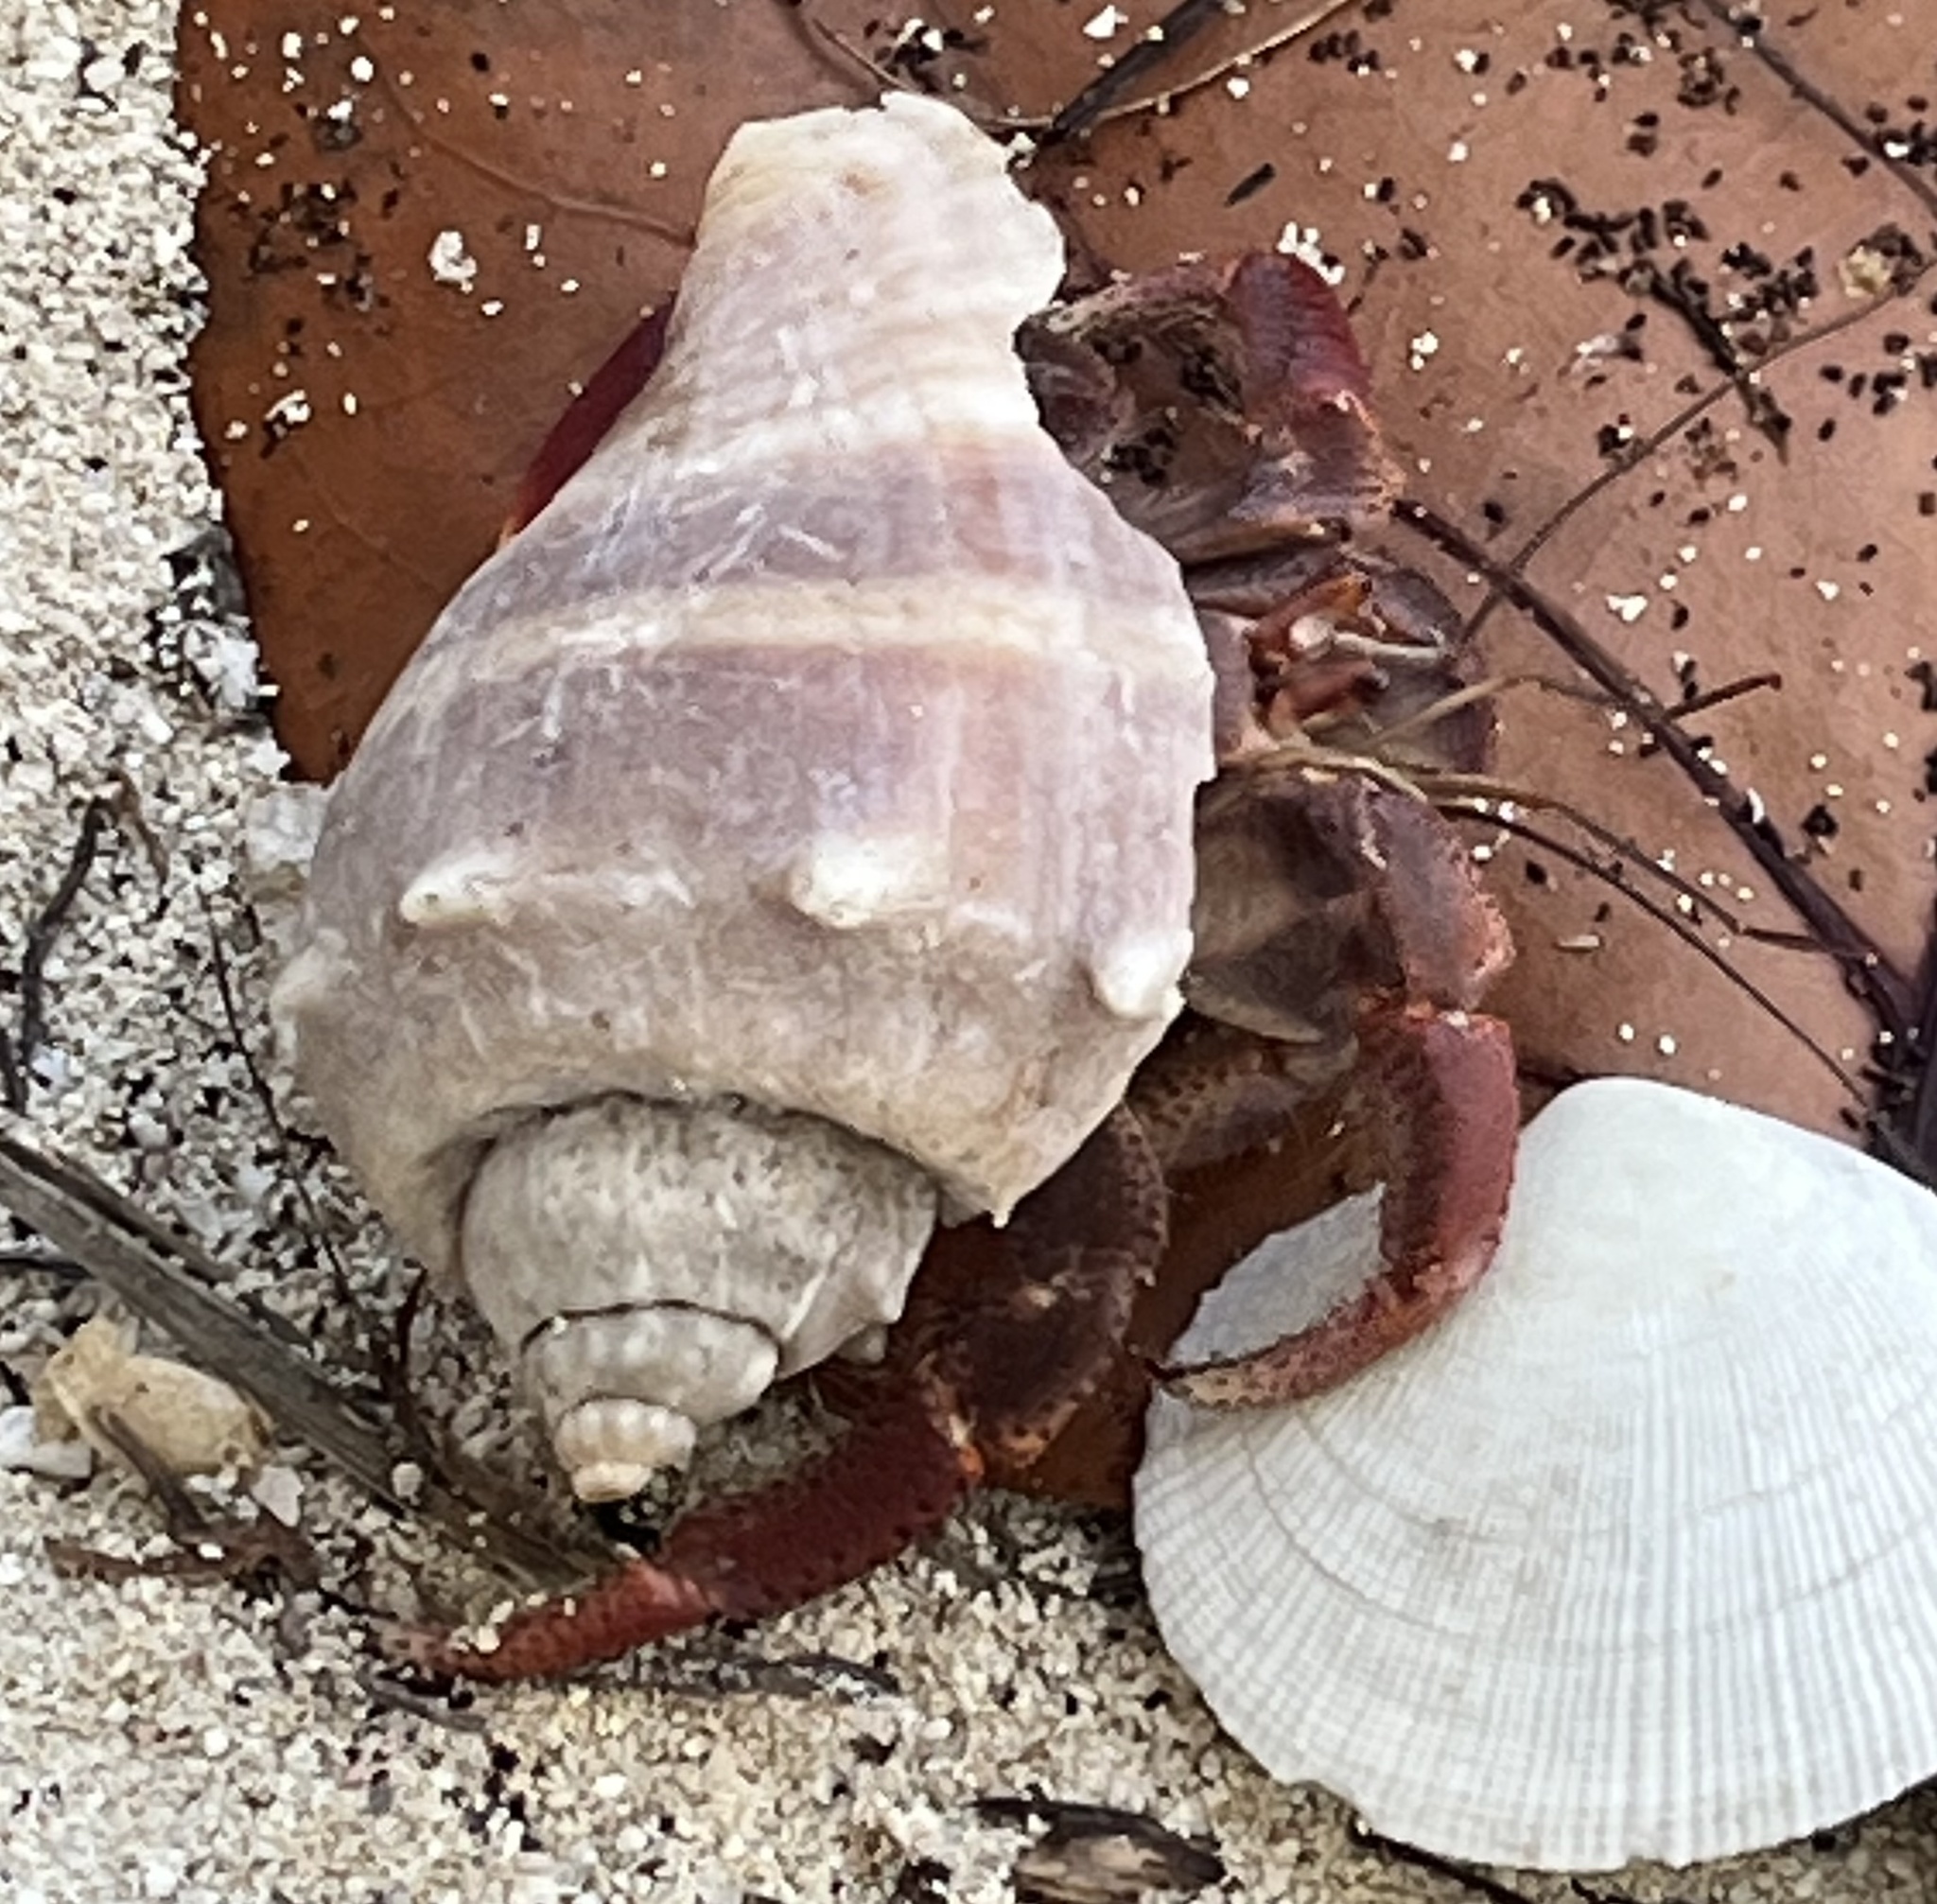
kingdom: Animalia
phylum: Arthropoda
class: Malacostraca
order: Decapoda
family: Coenobitidae
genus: Coenobita
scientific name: Coenobita clypeatus
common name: Caribbean hermit crab
